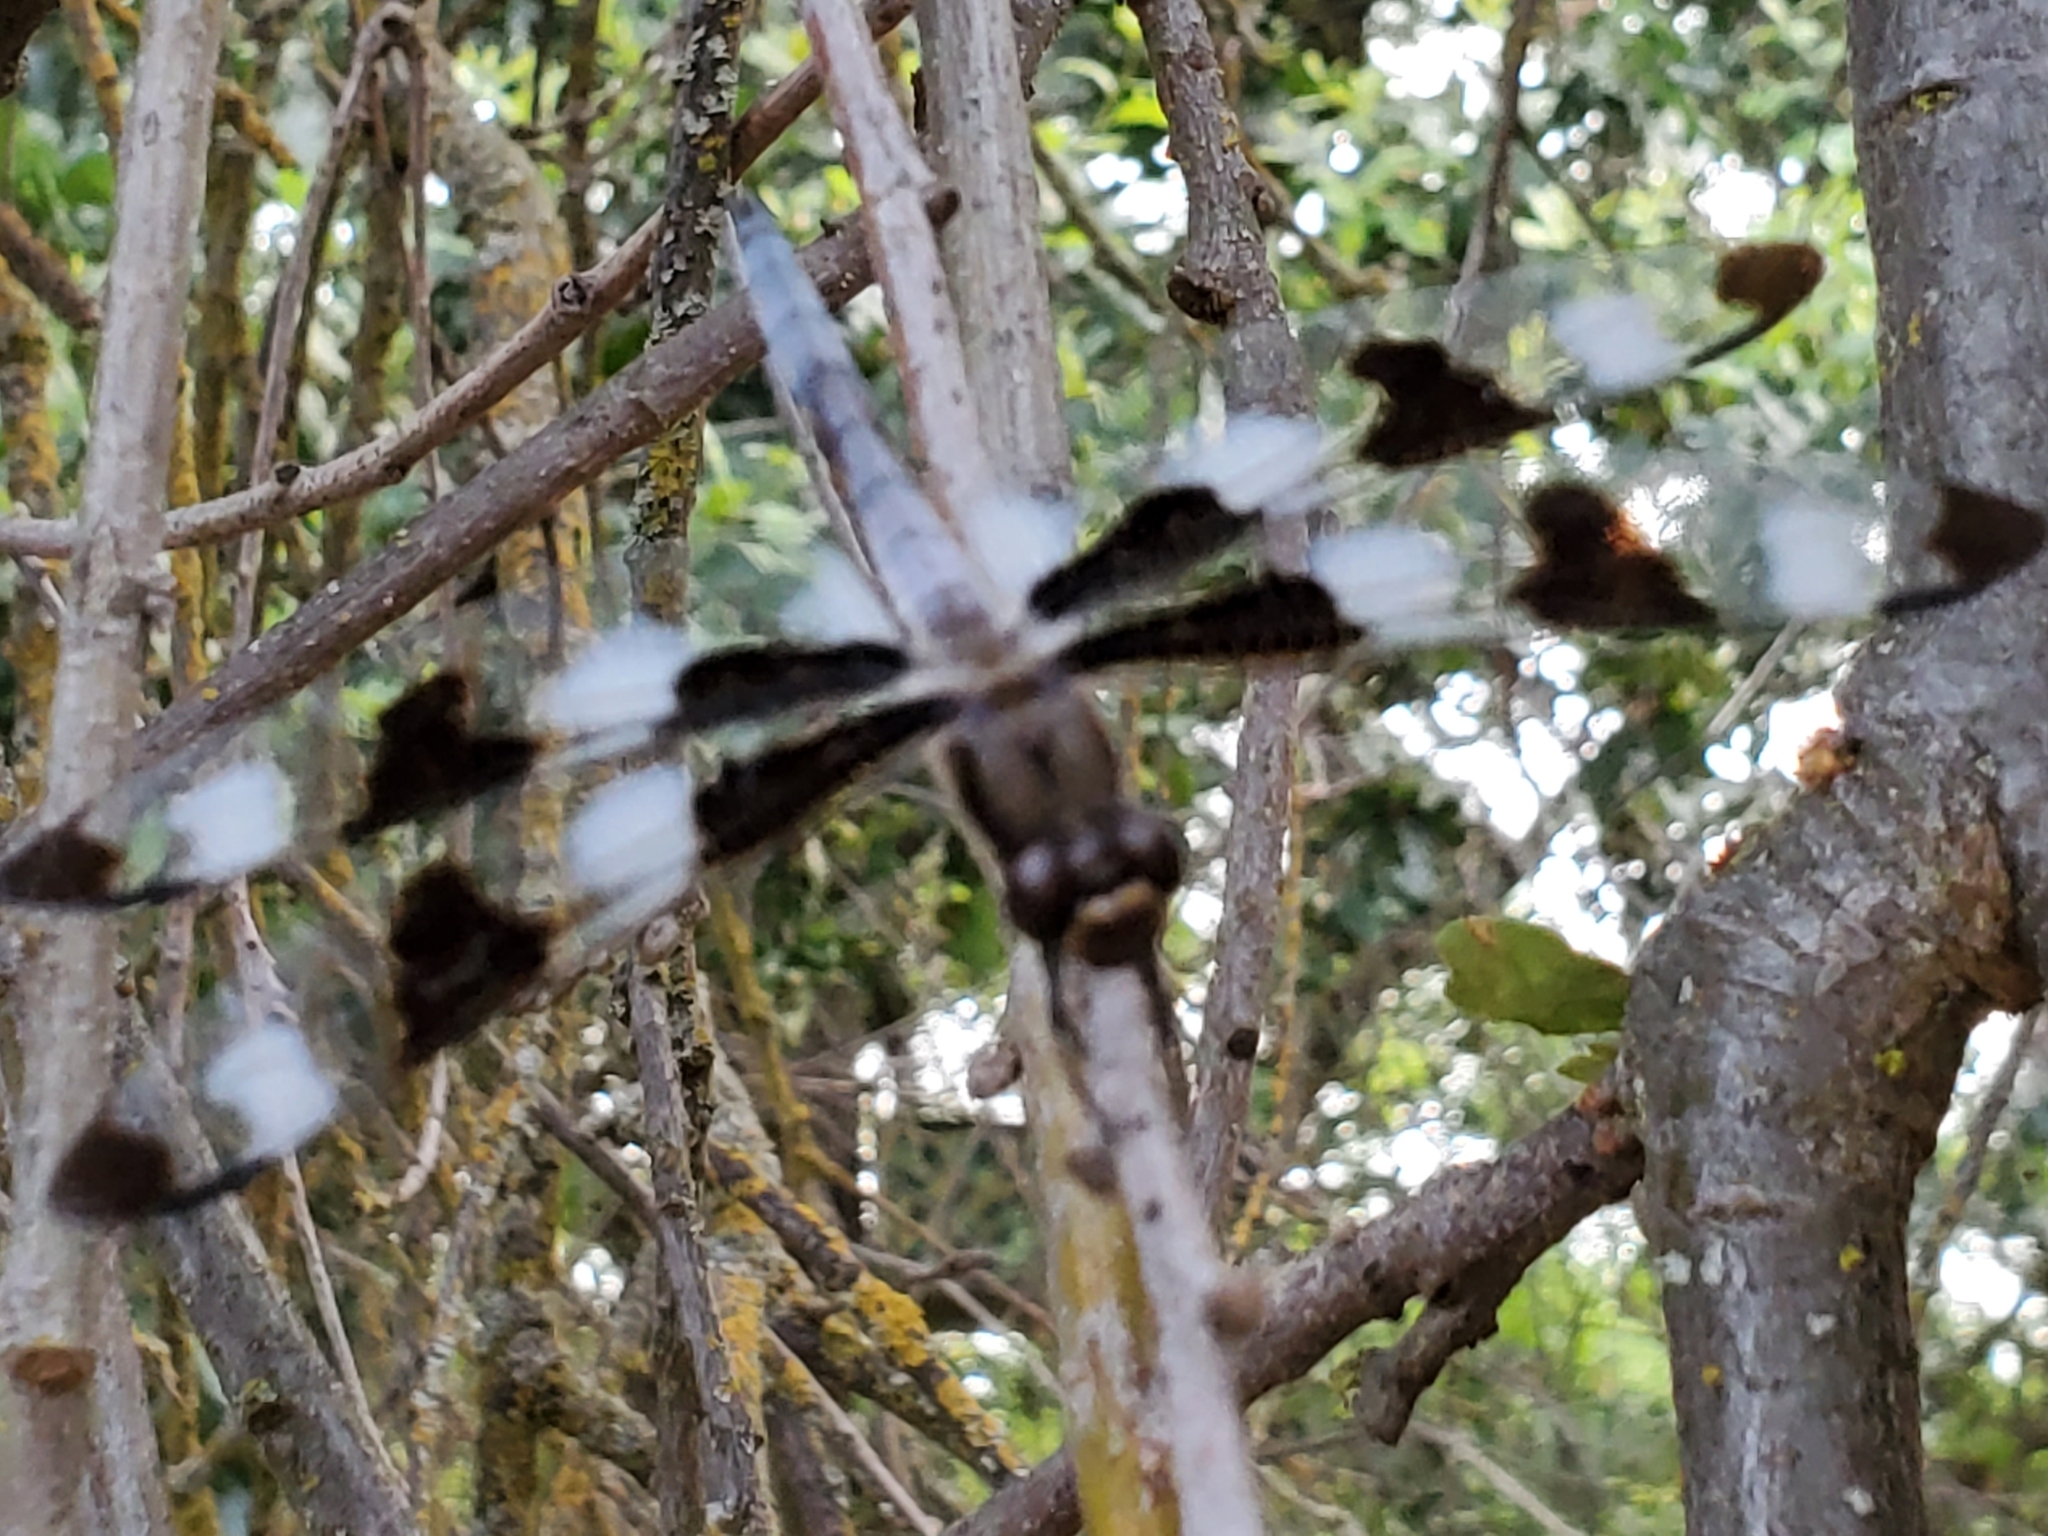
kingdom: Animalia
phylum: Arthropoda
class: Insecta
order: Odonata
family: Libellulidae
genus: Libellula
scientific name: Libellula pulchella
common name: Twelve-spotted skimmer
